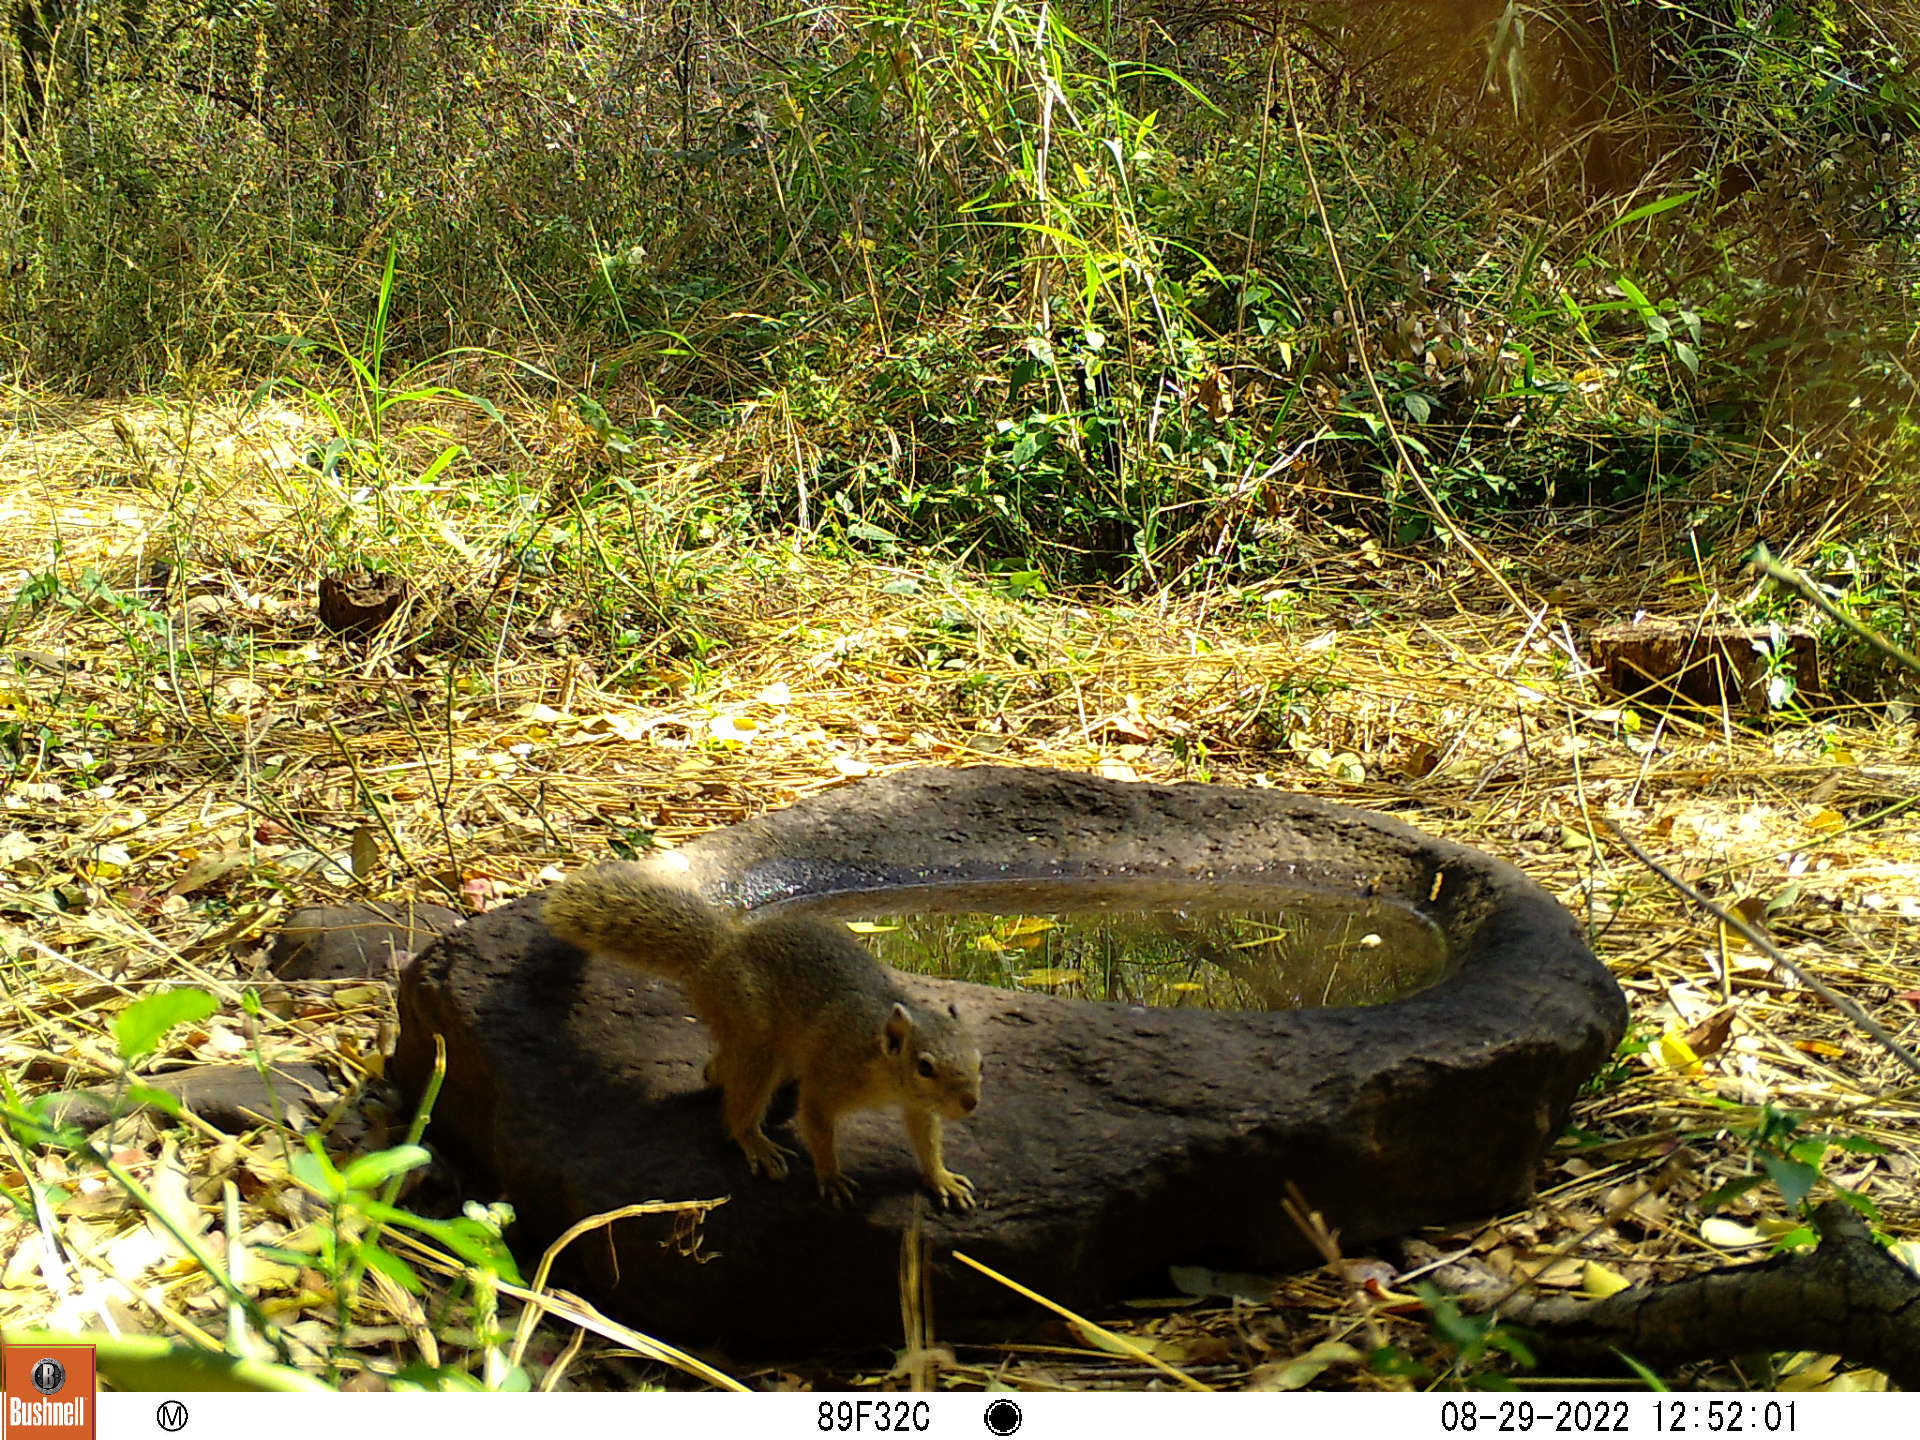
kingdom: Animalia
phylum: Chordata
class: Mammalia
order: Rodentia
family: Sciuridae
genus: Paraxerus
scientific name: Paraxerus cepapi
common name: Smith's bush squirrel
